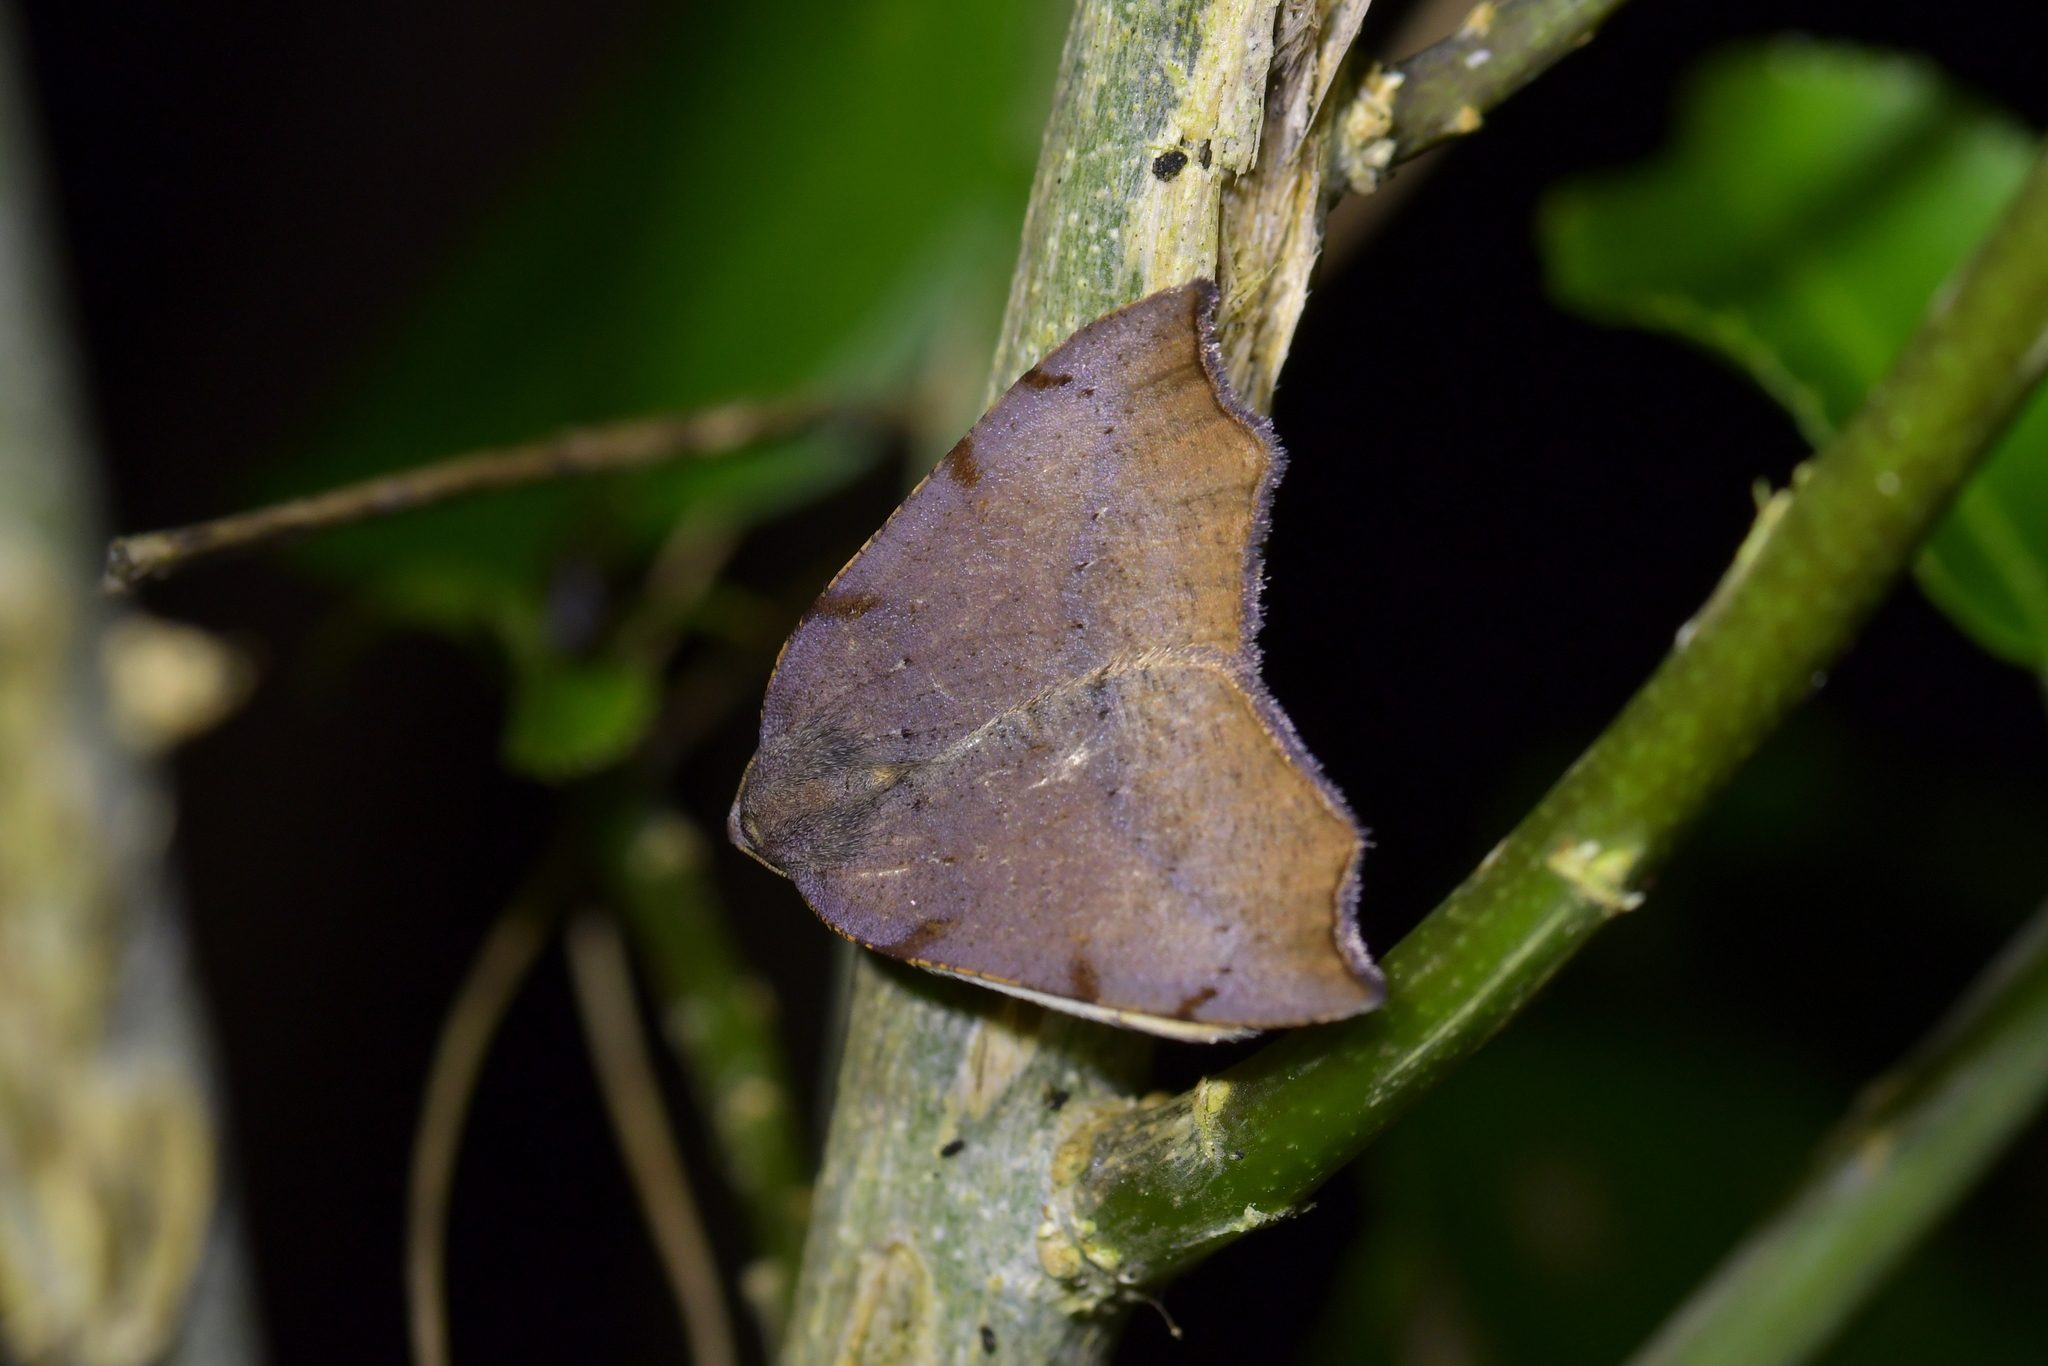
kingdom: Animalia
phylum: Arthropoda
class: Insecta
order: Lepidoptera
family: Geometridae
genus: Sestra
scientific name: Sestra flexata
